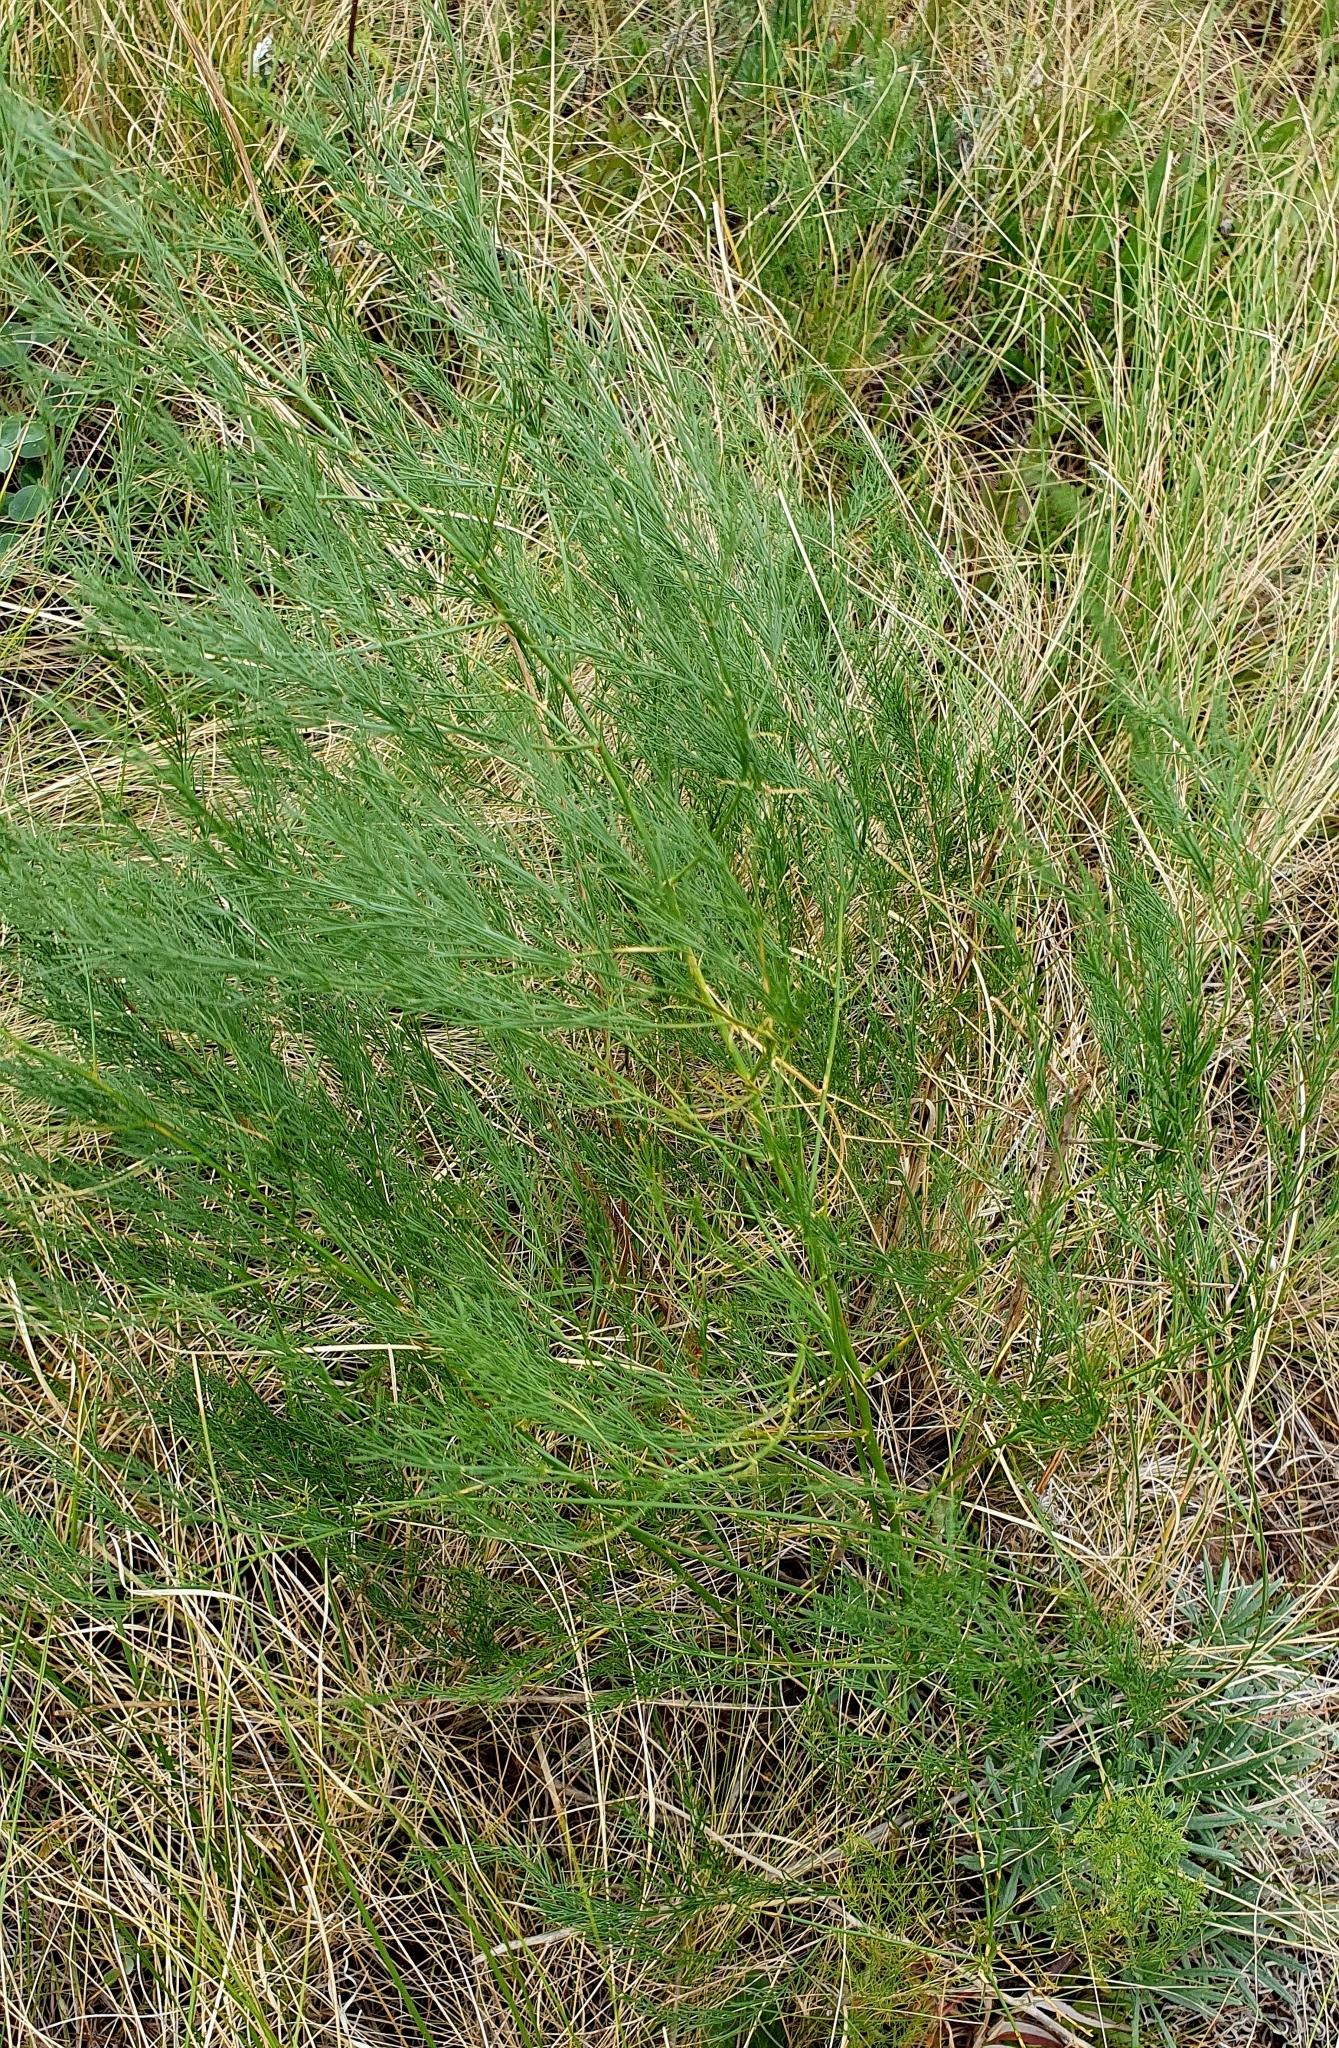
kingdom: Plantae
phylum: Tracheophyta
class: Liliopsida
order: Asparagales
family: Asparagaceae
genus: Asparagus
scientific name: Asparagus officinalis
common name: Garden asparagus
